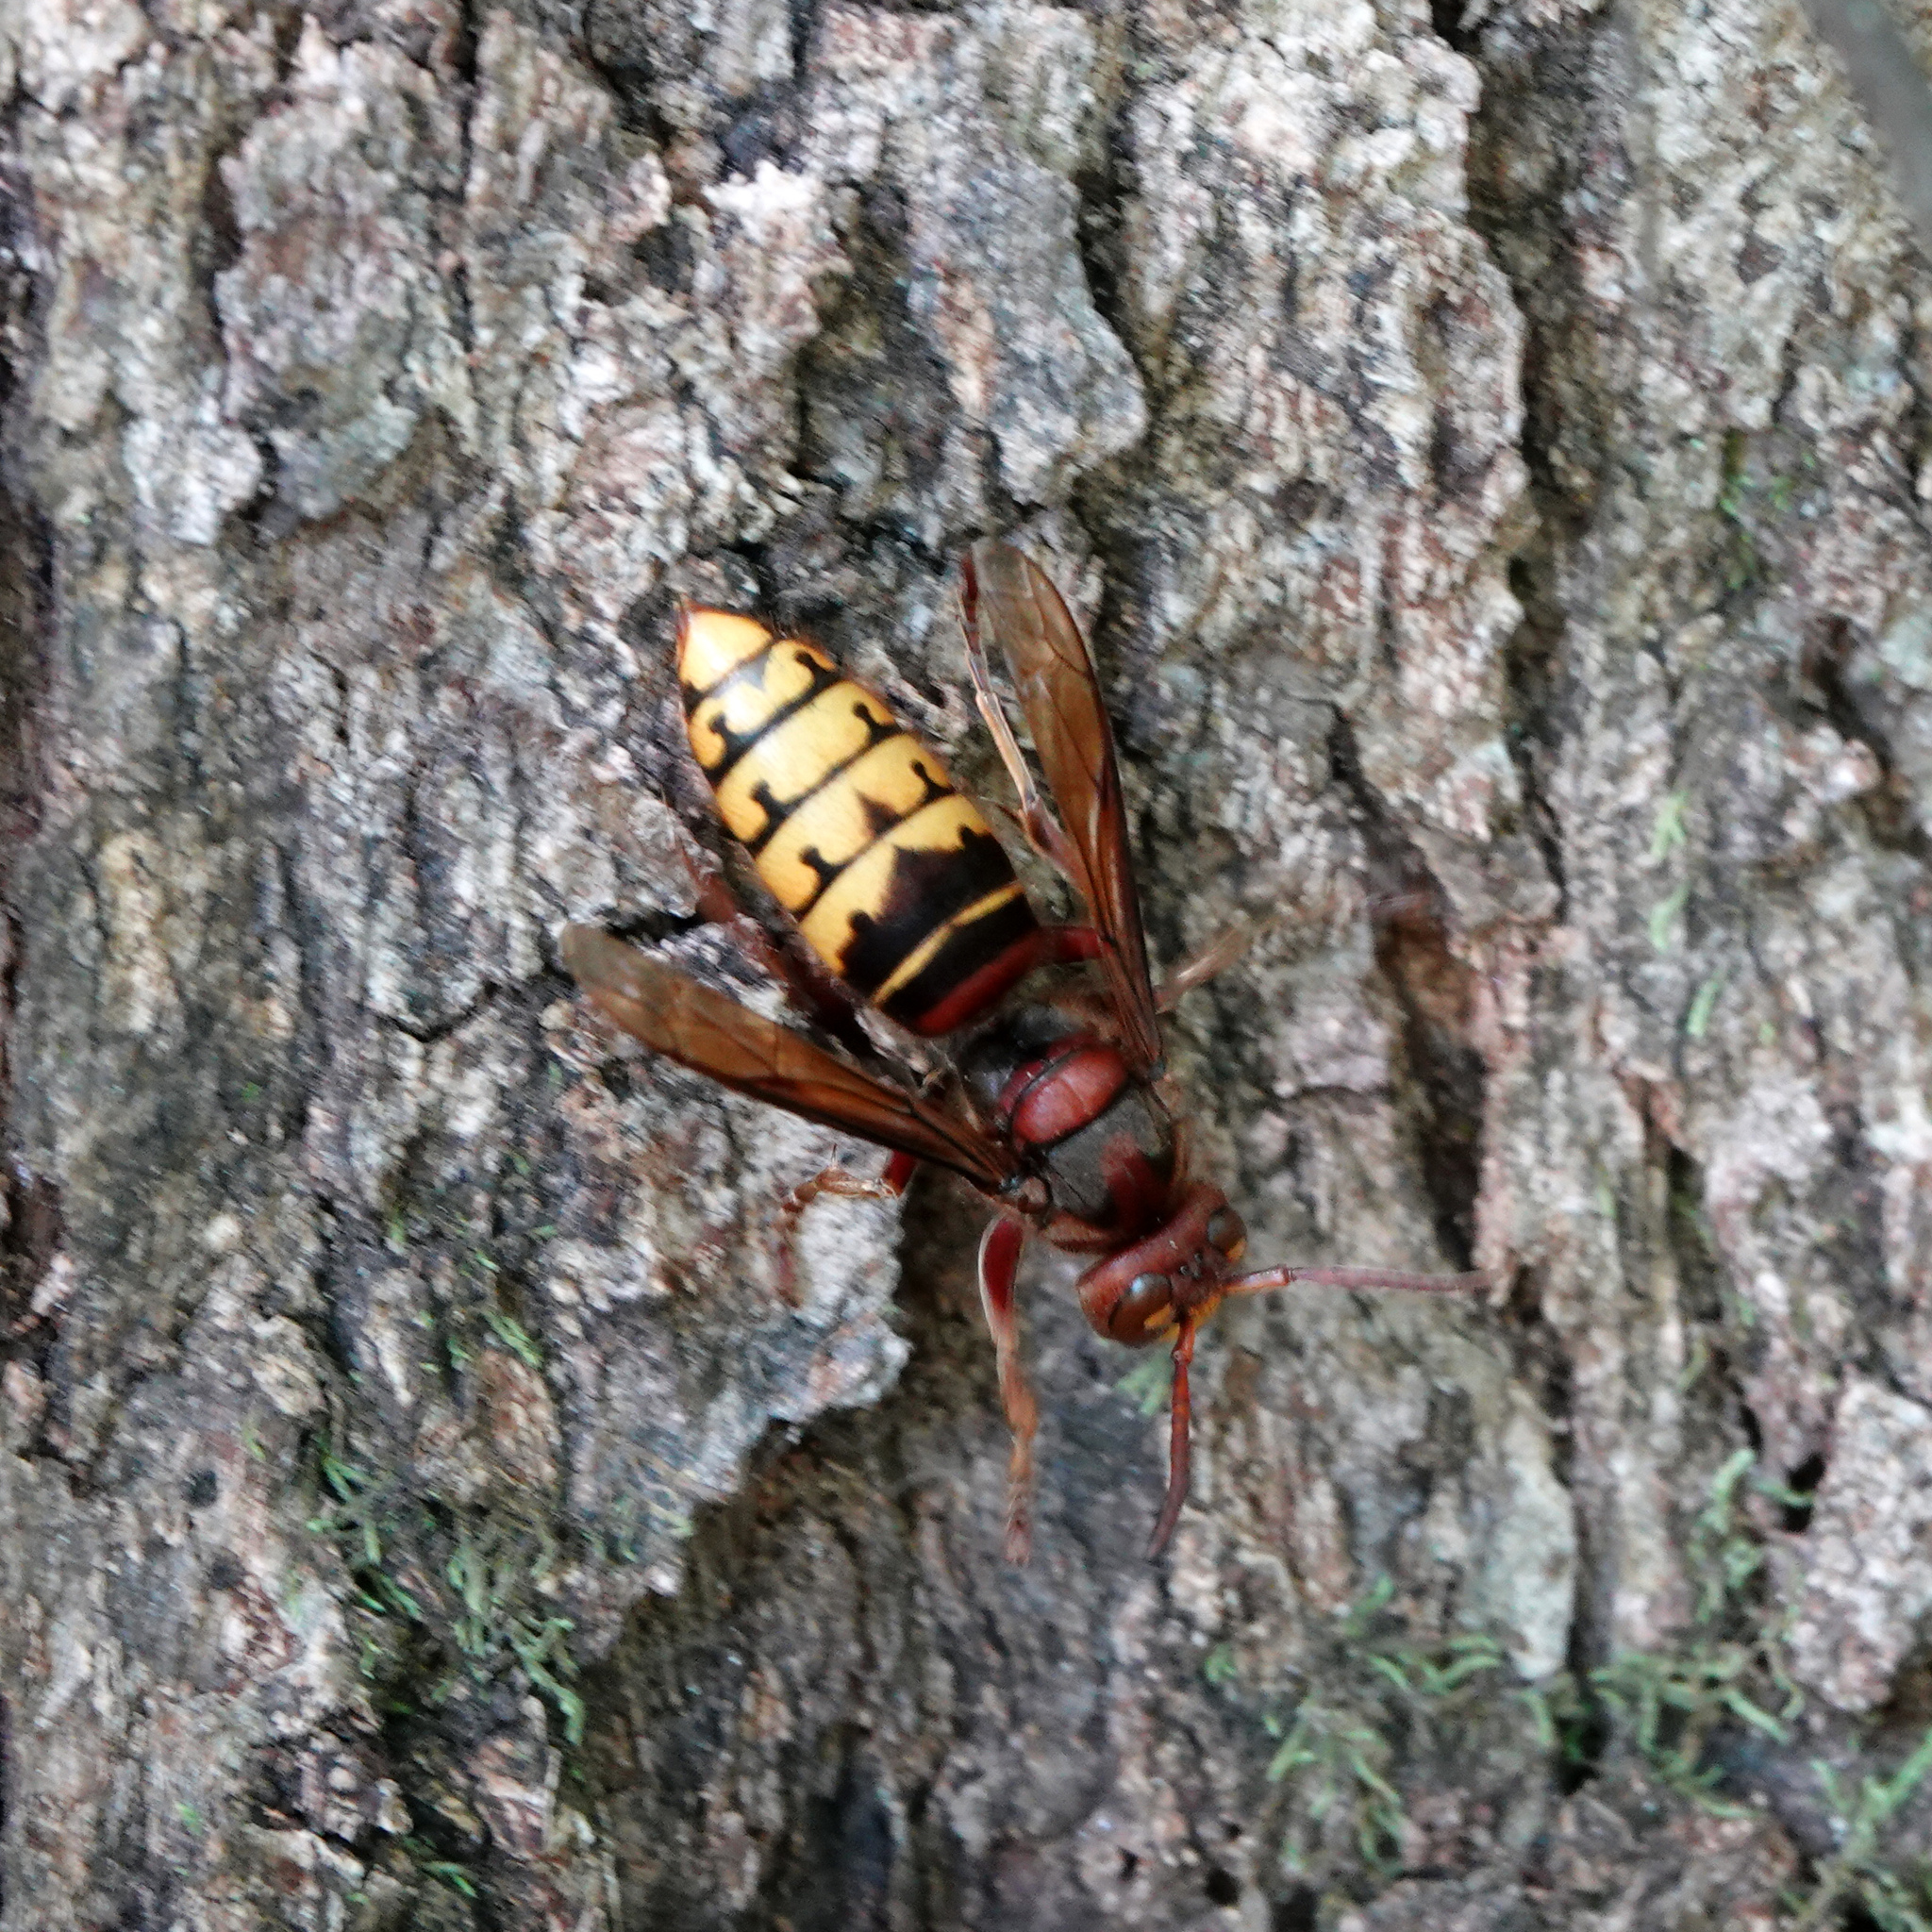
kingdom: Animalia
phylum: Arthropoda
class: Insecta
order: Hymenoptera
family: Vespidae
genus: Vespa
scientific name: Vespa crabro
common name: Hornet
